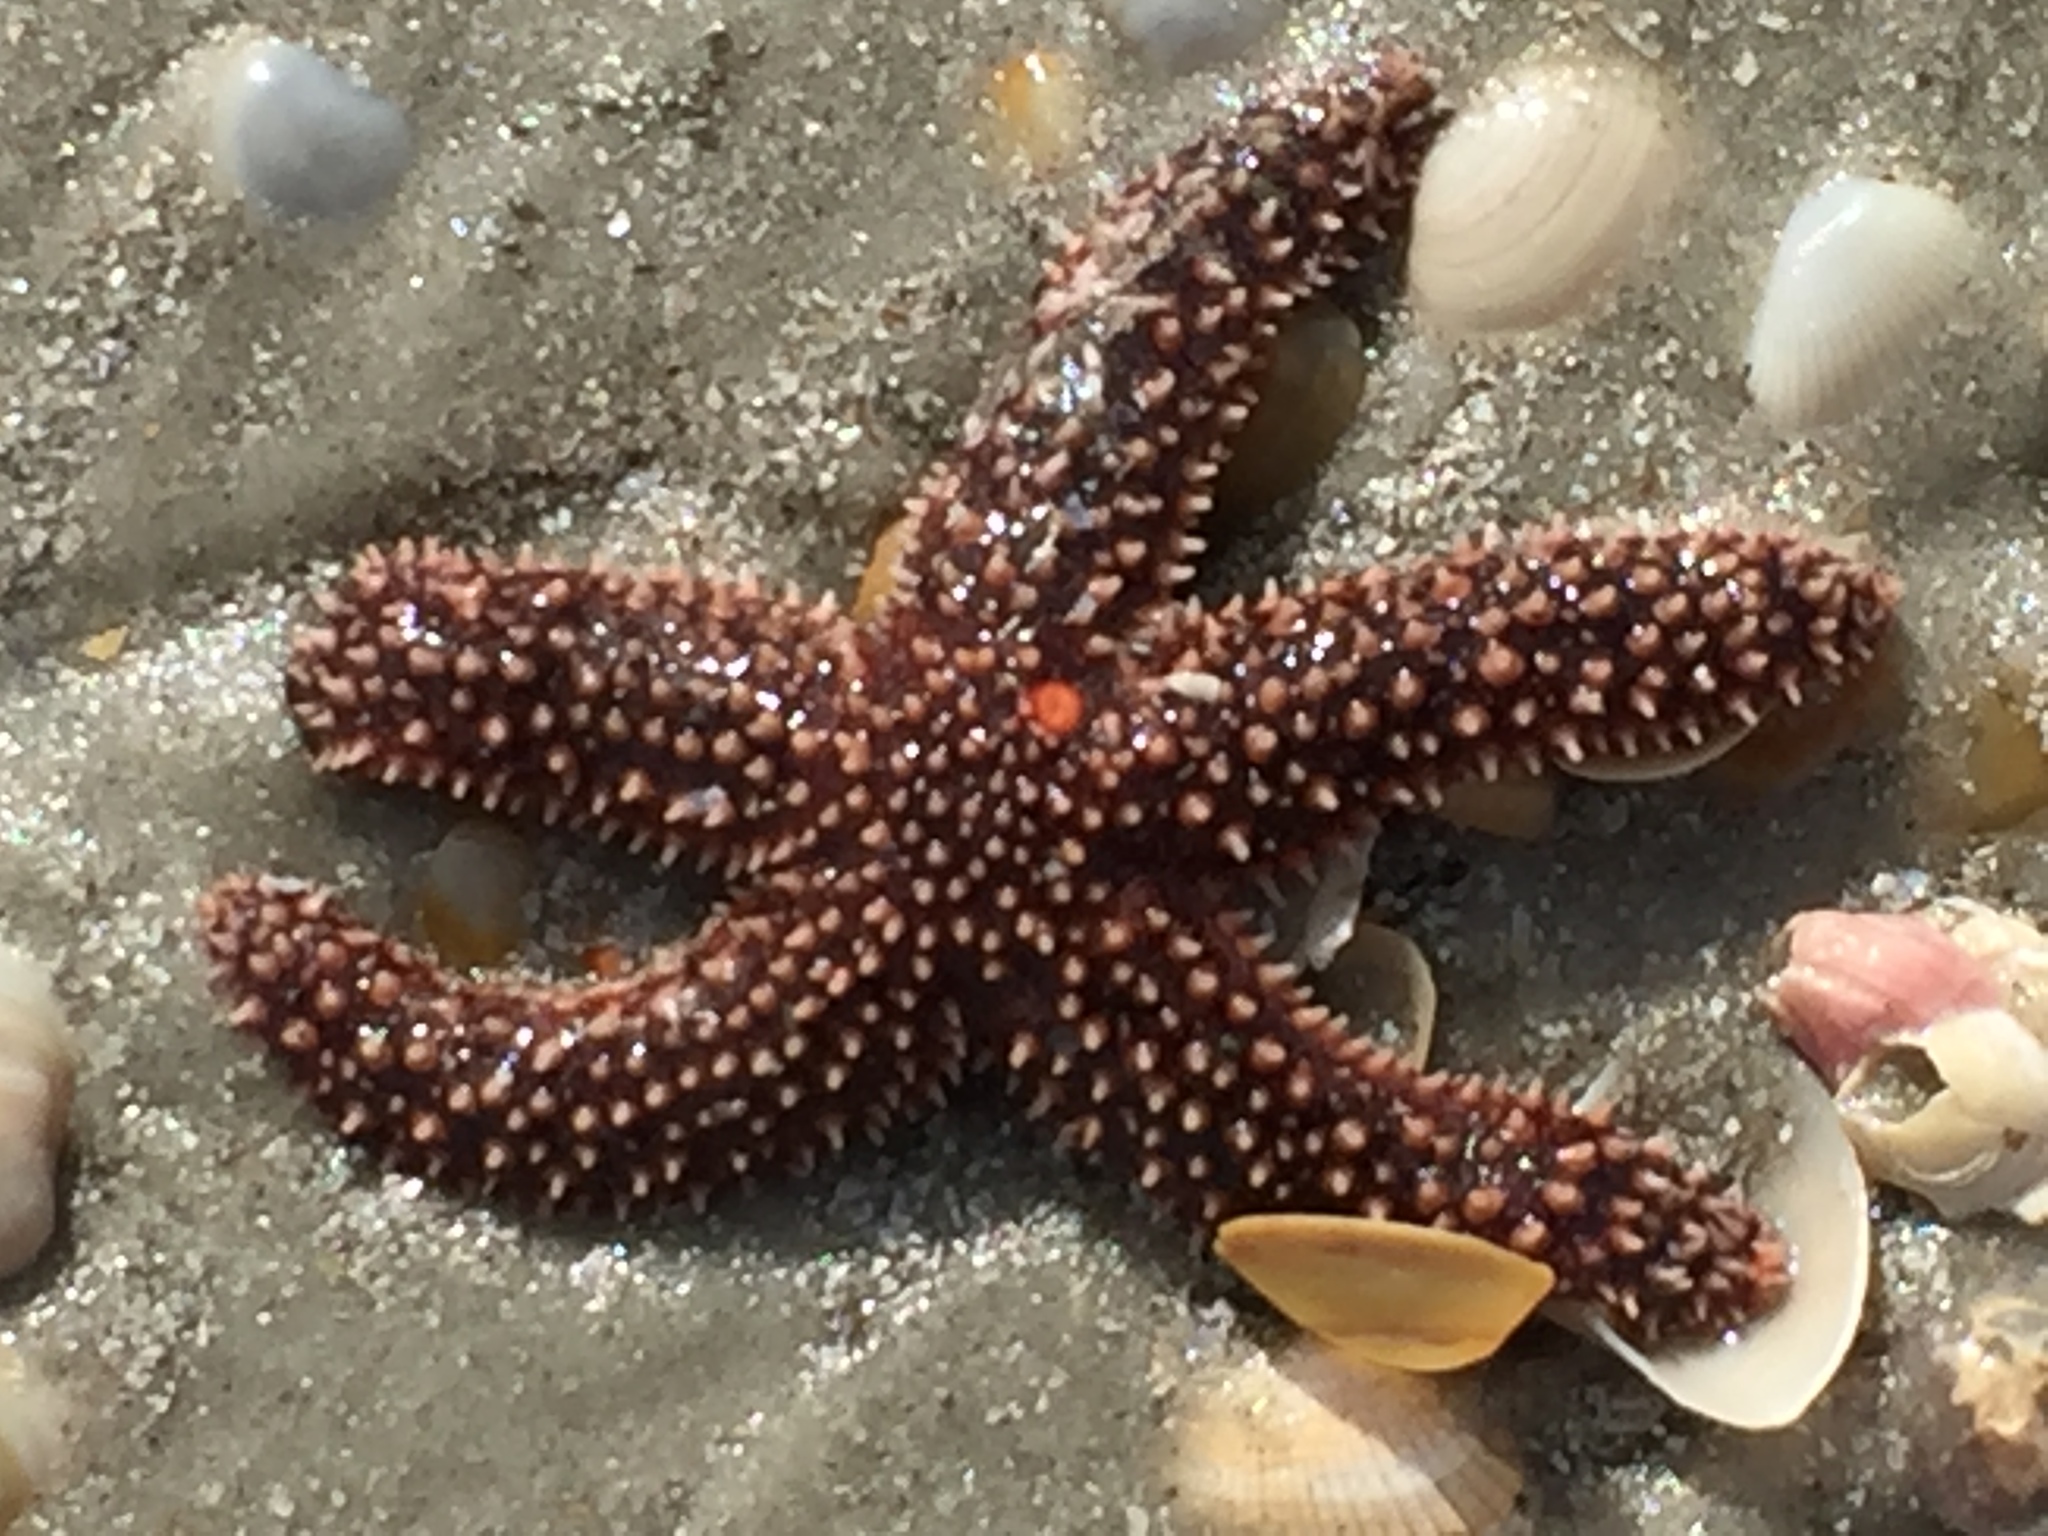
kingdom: Animalia
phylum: Echinodermata
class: Asteroidea
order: Forcipulatida
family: Asteriidae
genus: Asterias
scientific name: Asterias forbesi
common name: Forbes's sea star
